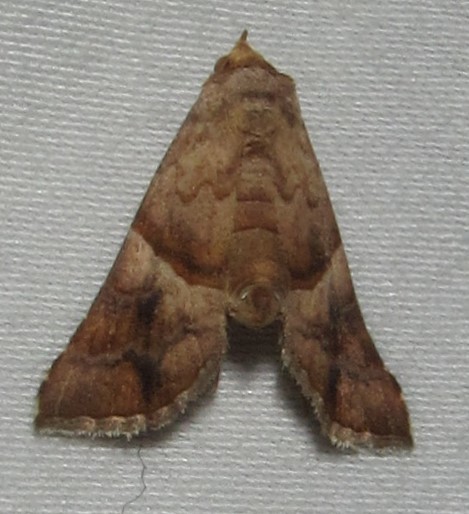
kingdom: Animalia
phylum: Arthropoda
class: Insecta
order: Lepidoptera
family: Erebidae
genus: Radara
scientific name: Radara vacillans
